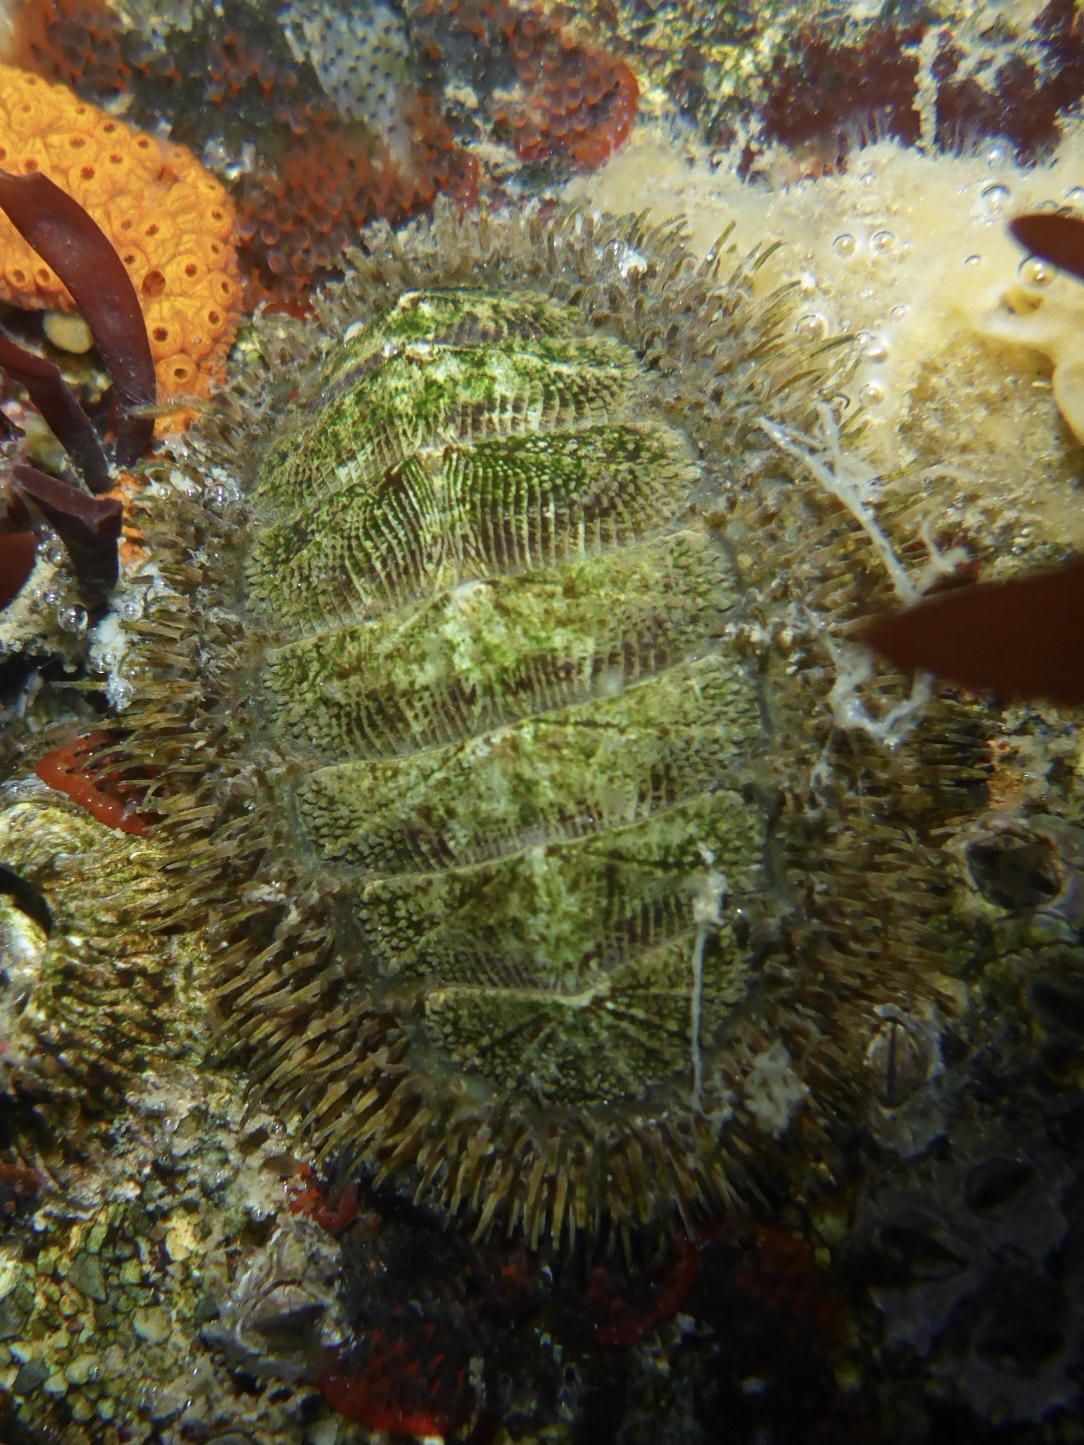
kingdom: Animalia
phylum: Mollusca
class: Polyplacophora
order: Chitonida
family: Mopaliidae
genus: Mopalia
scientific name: Mopalia muscosa
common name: Mossy chiton
